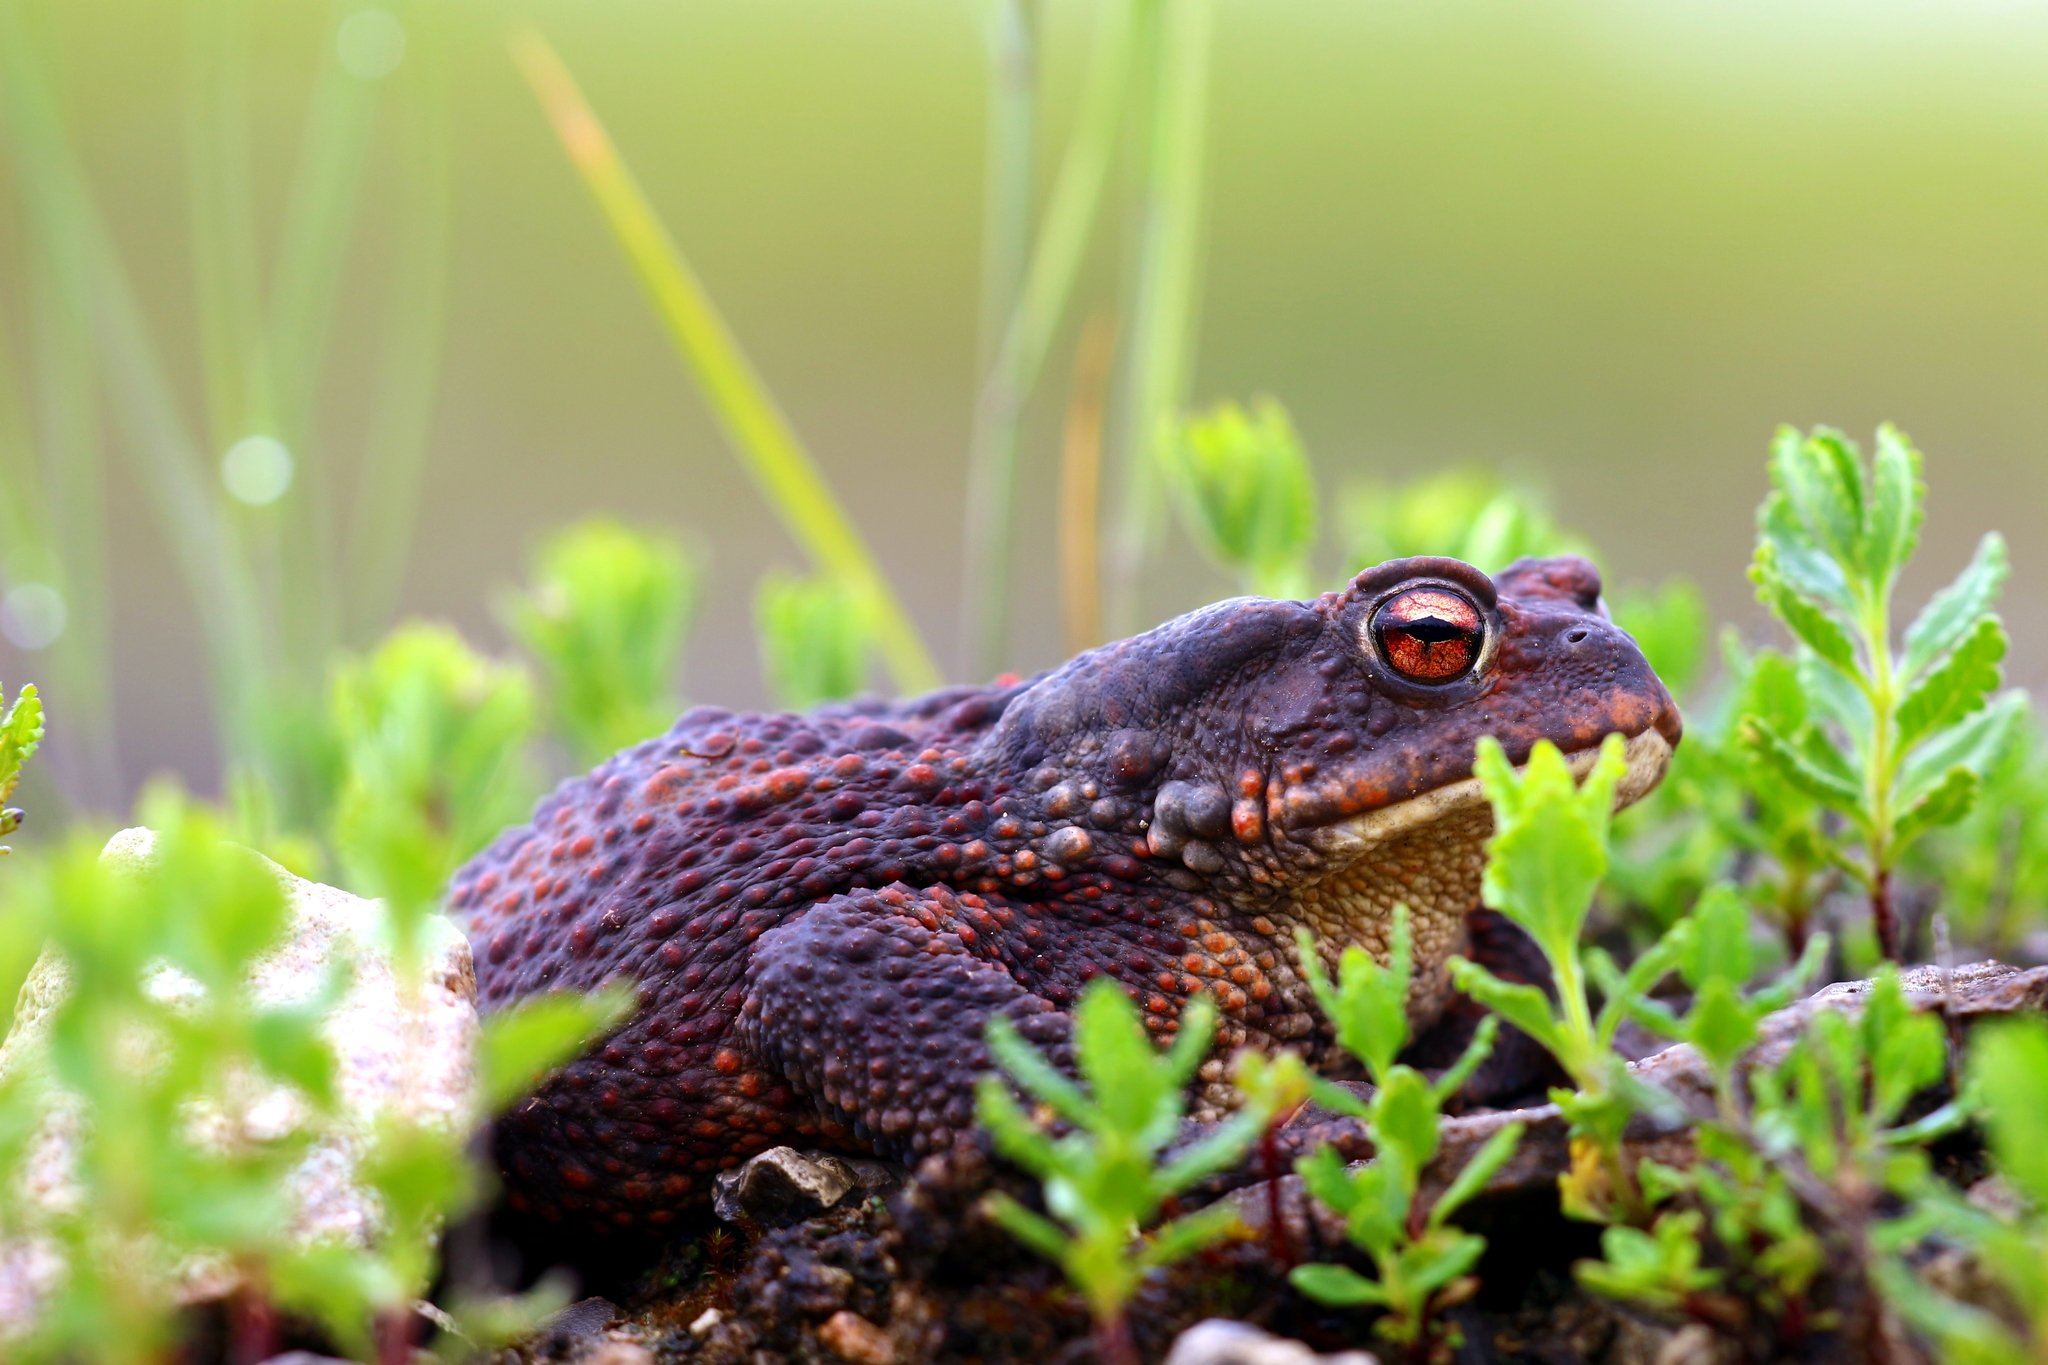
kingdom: Animalia
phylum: Chordata
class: Amphibia
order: Anura
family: Bufonidae
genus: Bufo
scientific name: Bufo bufo
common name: Common toad
